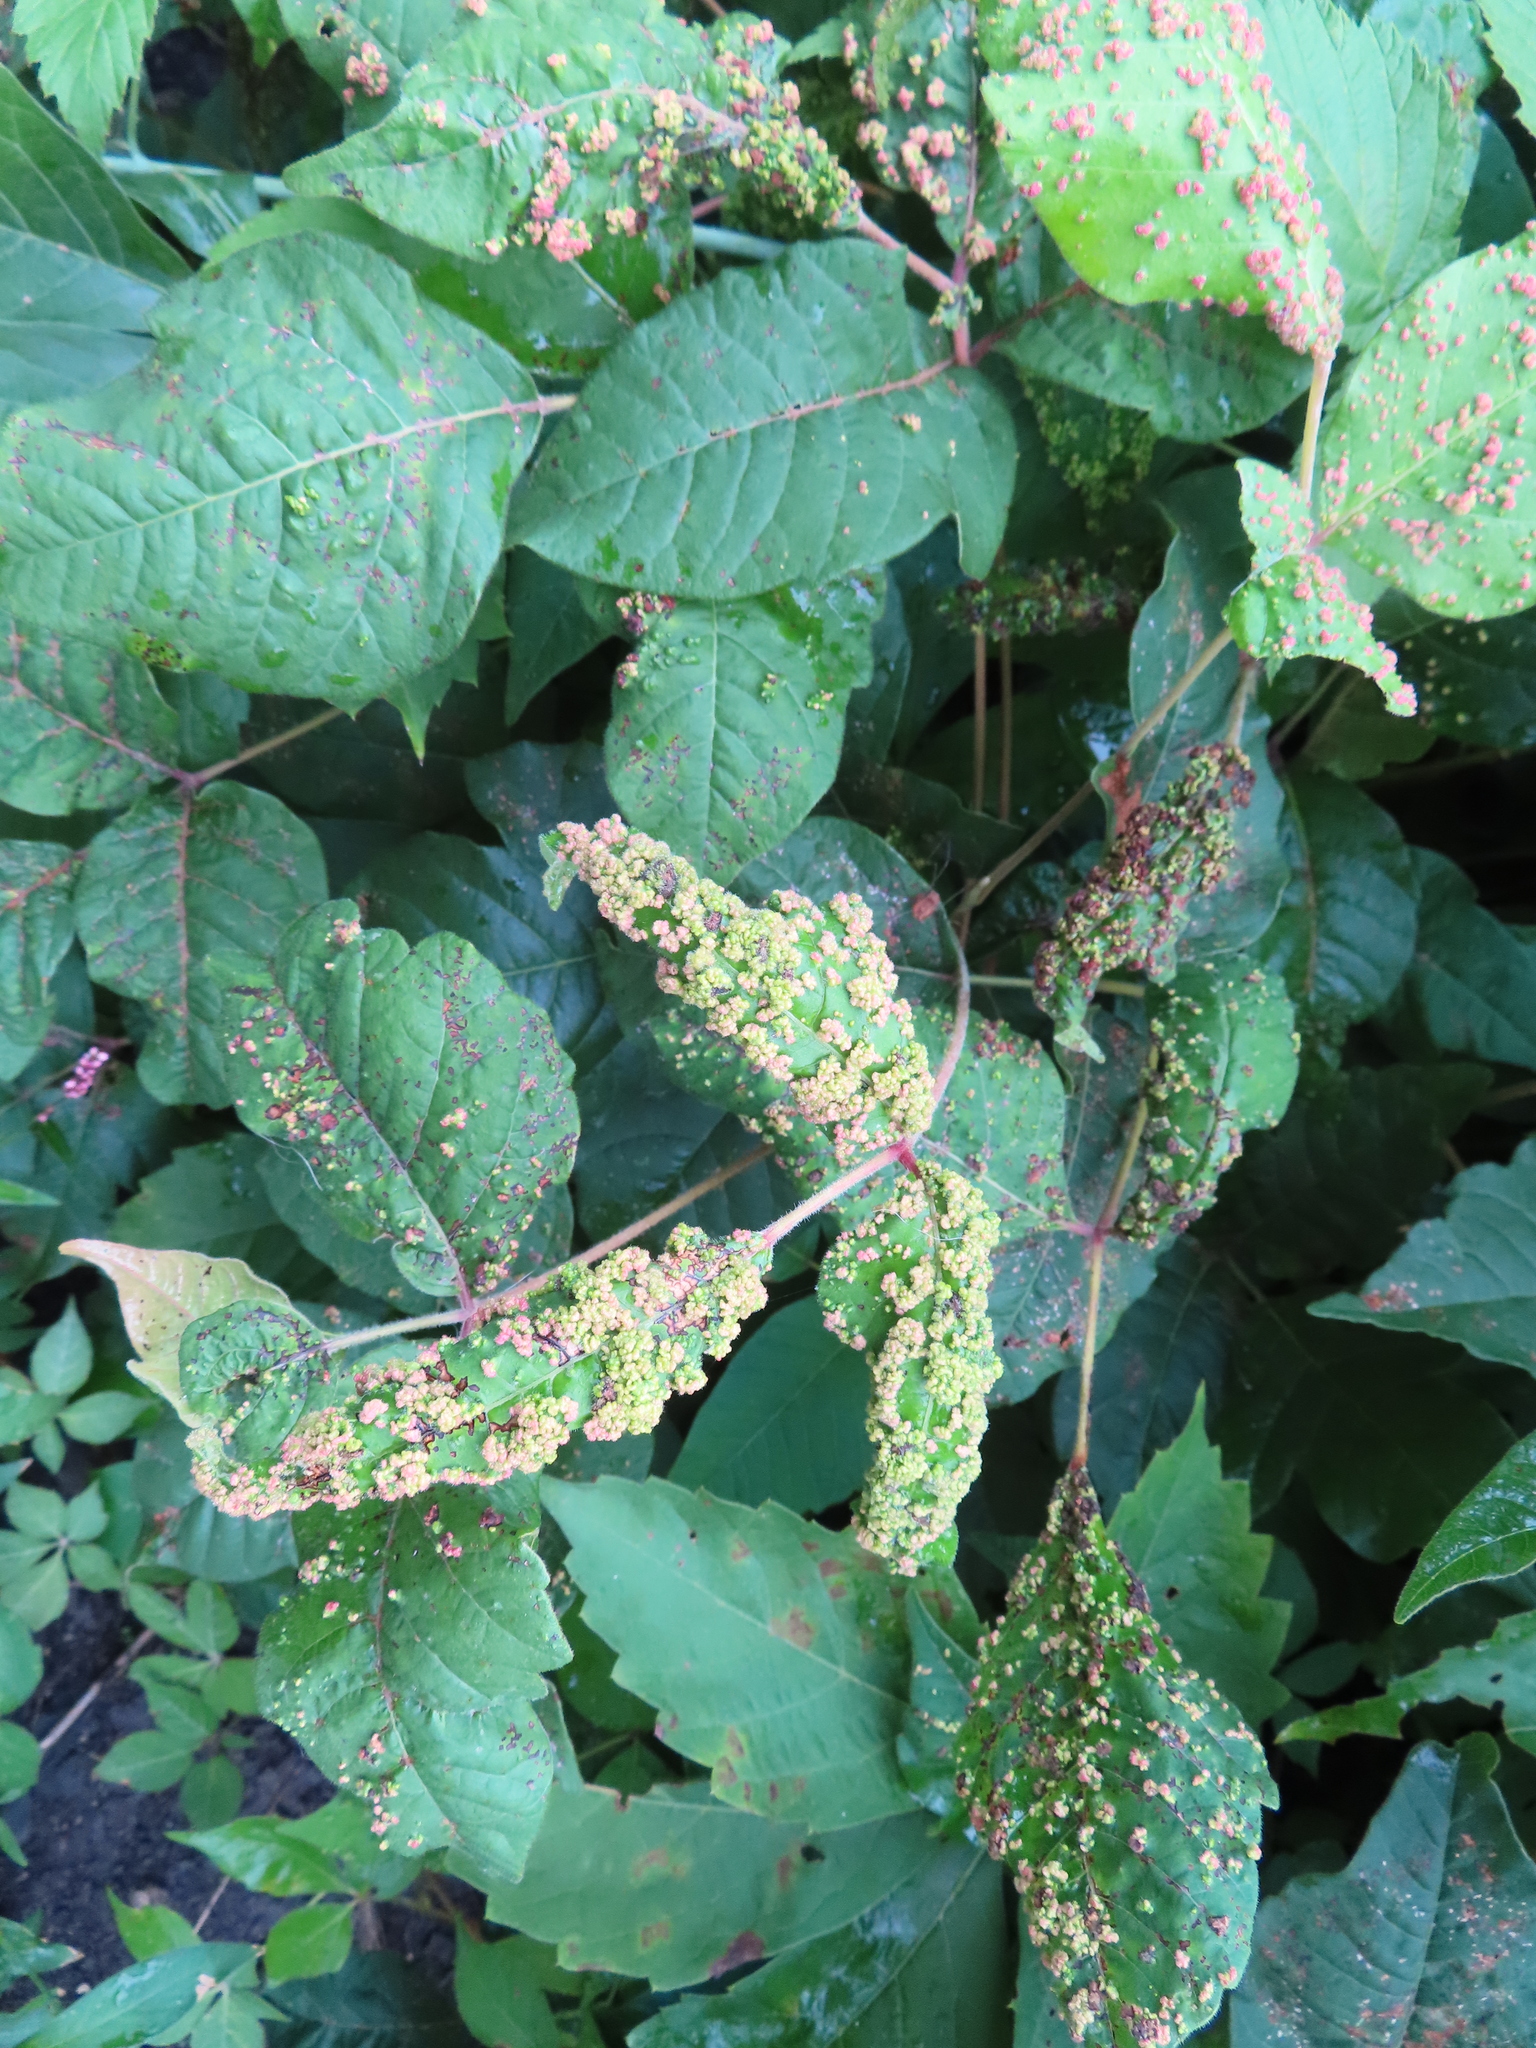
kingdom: Animalia
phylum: Arthropoda
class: Arachnida
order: Trombidiformes
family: Eriophyidae
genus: Aculops
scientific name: Aculops
